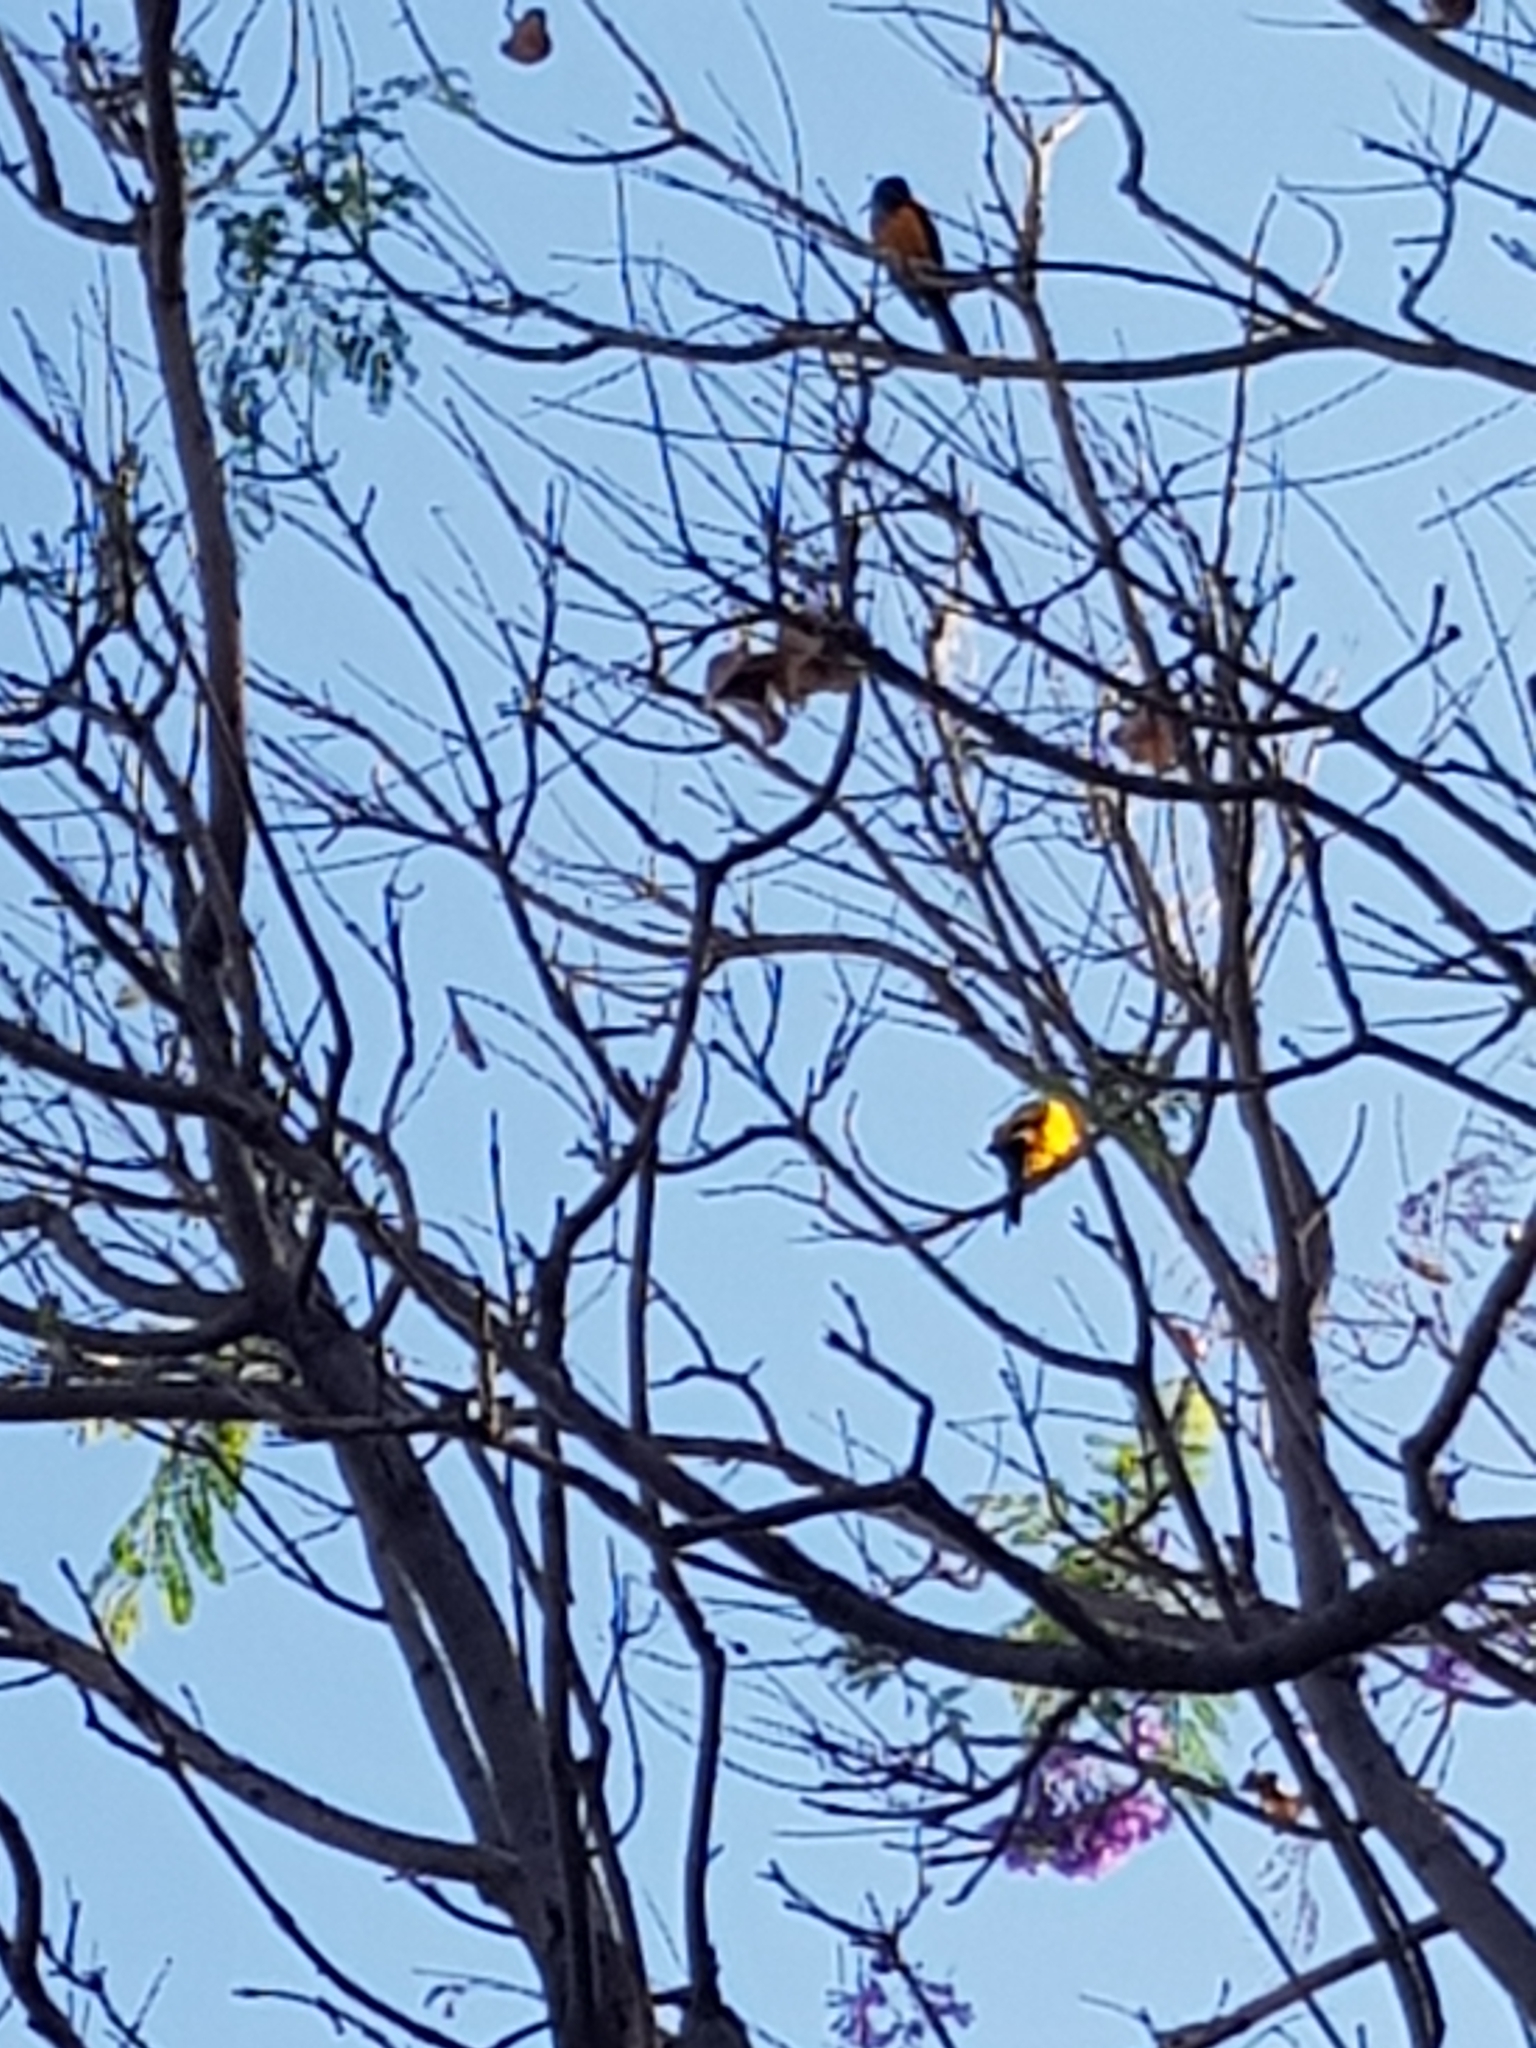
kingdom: Animalia
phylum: Chordata
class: Aves
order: Passeriformes
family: Icteridae
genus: Icterus
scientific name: Icterus wagleri
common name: Black-vented oriole
